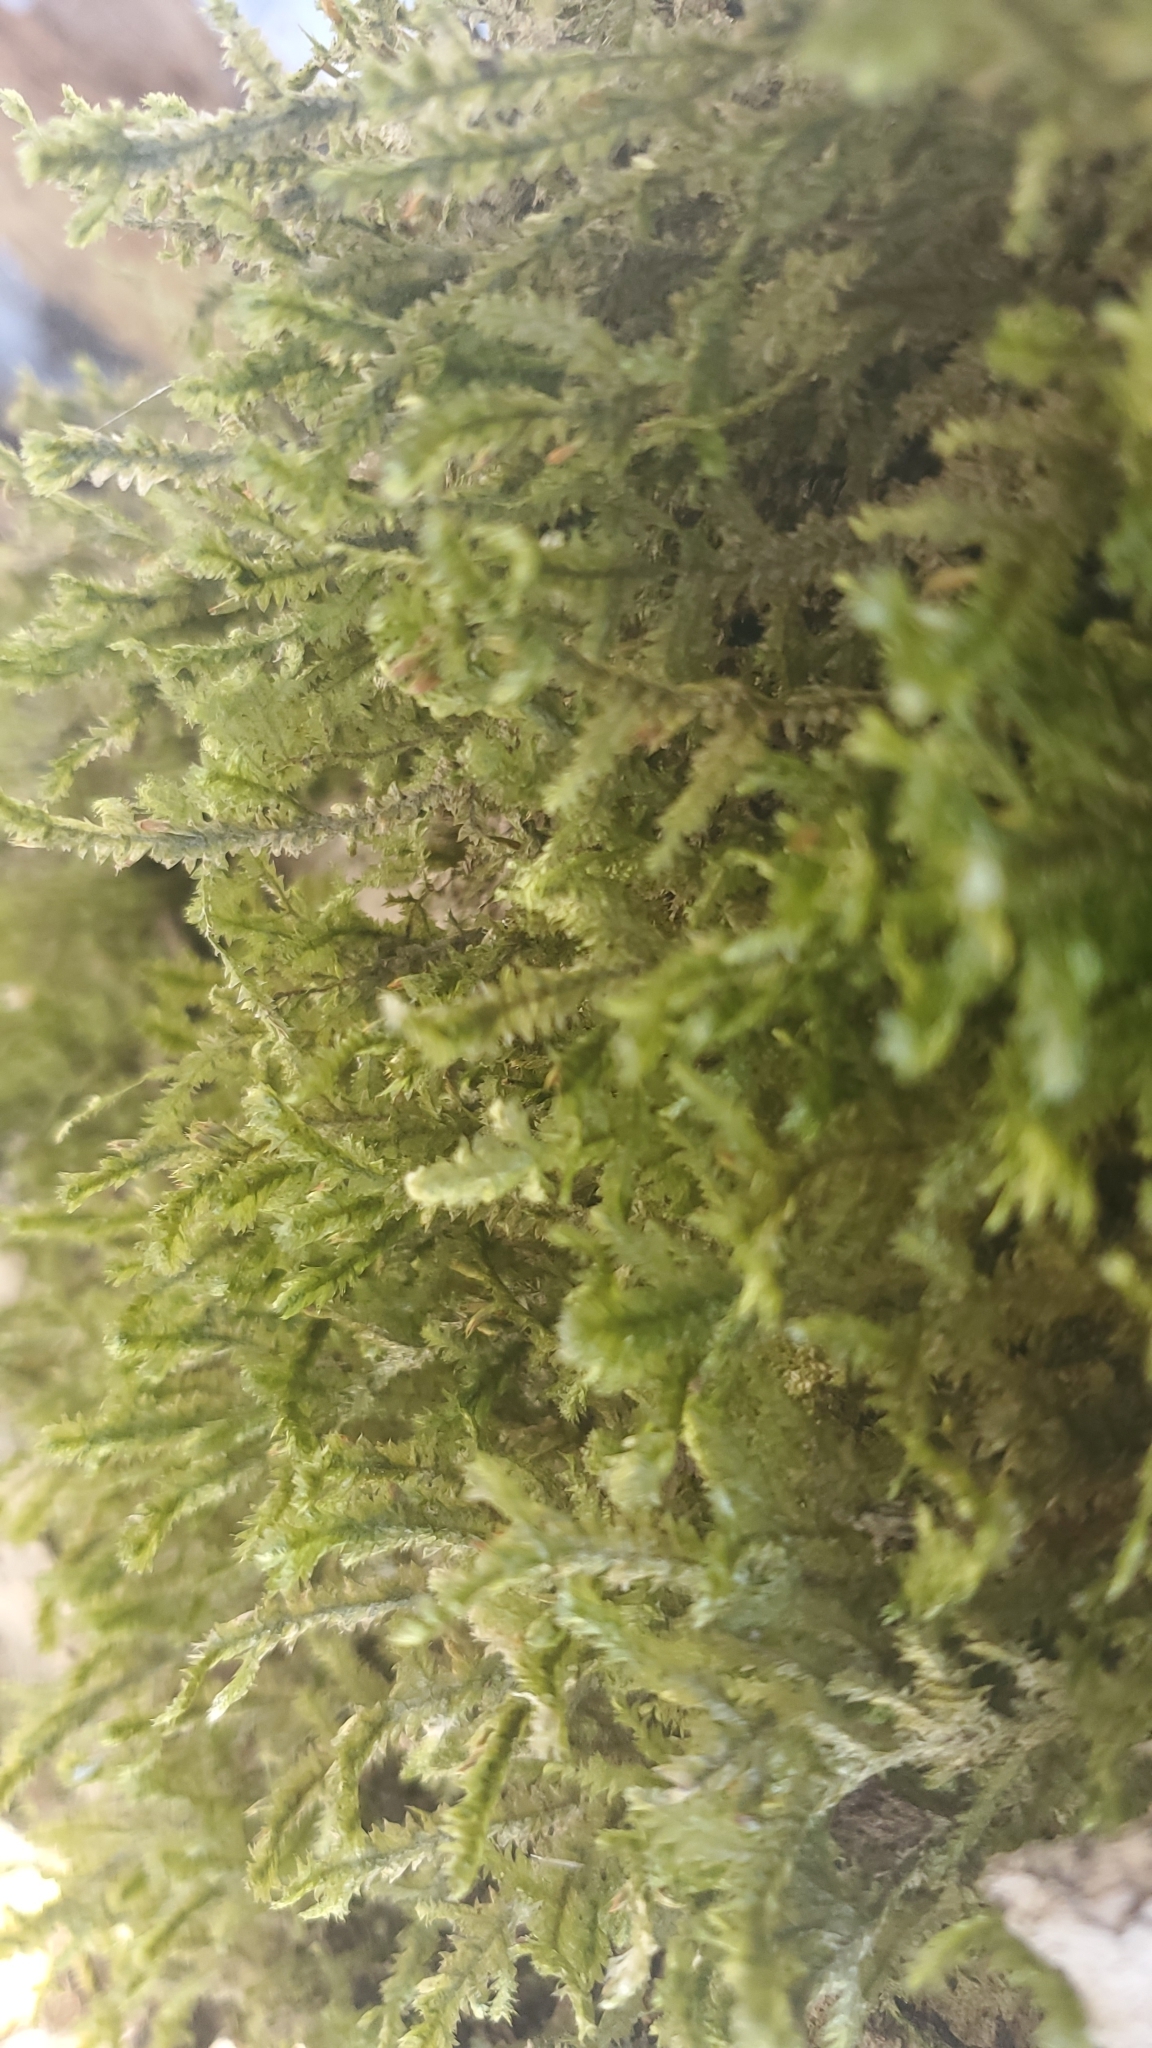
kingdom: Plantae
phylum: Bryophyta
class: Bryopsida
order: Hypnales
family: Neckeraceae
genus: Neckera
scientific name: Neckera pennata
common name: Feathery neckera
